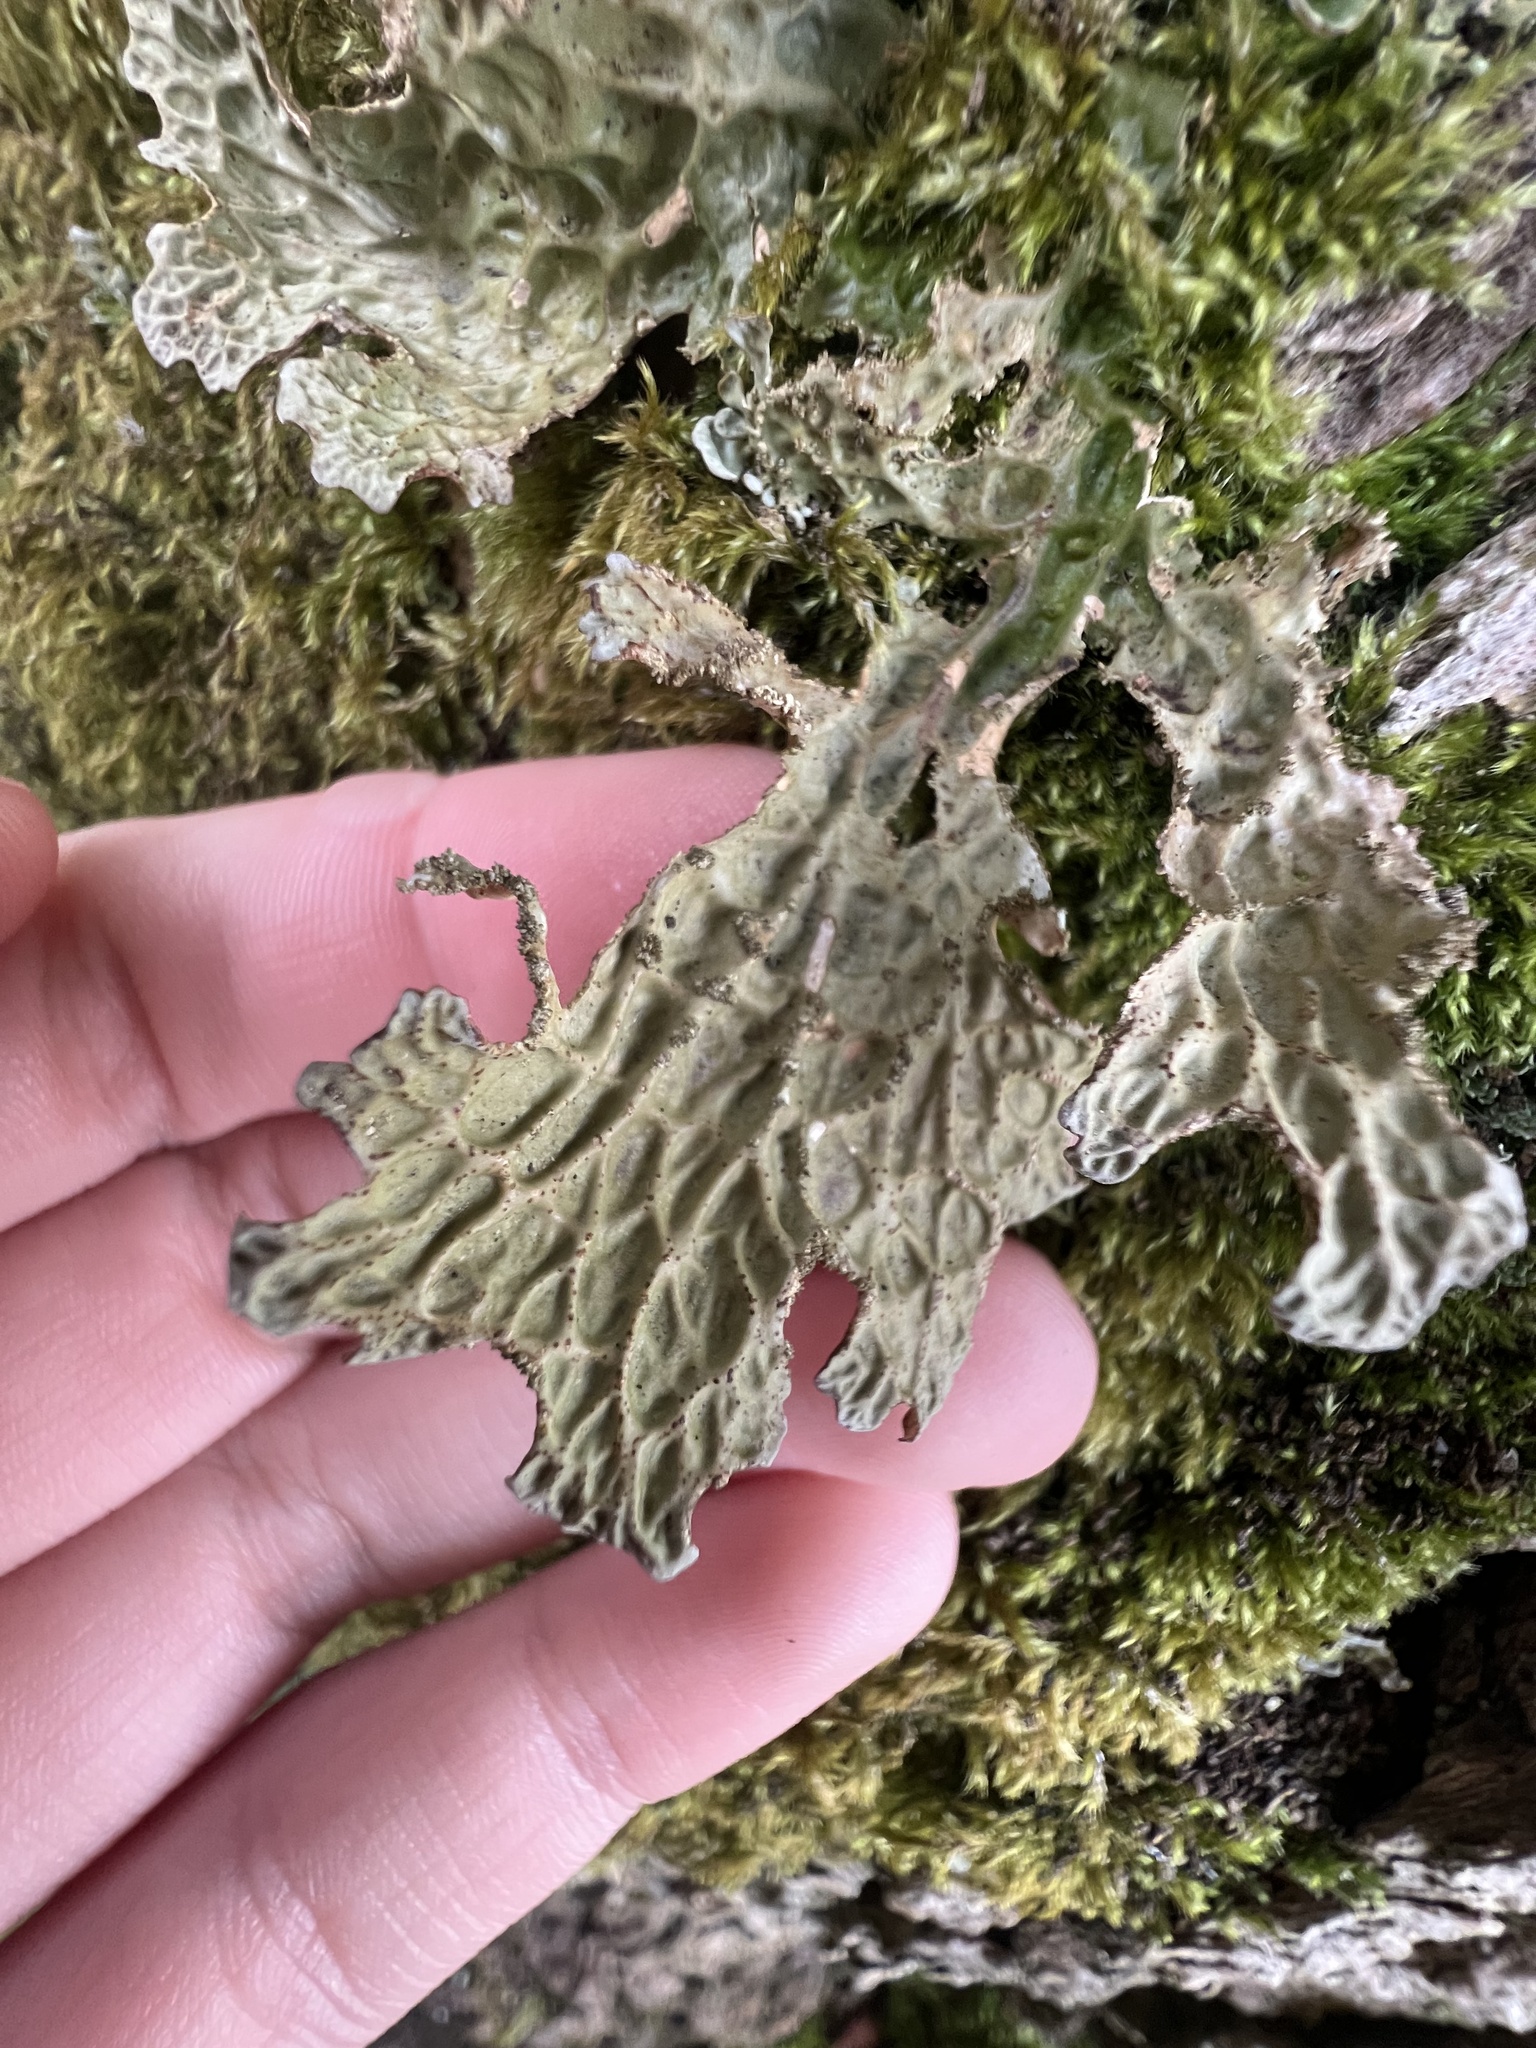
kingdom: Fungi
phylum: Ascomycota
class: Lecanoromycetes
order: Peltigerales
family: Lobariaceae
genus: Lobaria
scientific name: Lobaria pulmonaria
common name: Lungwort
